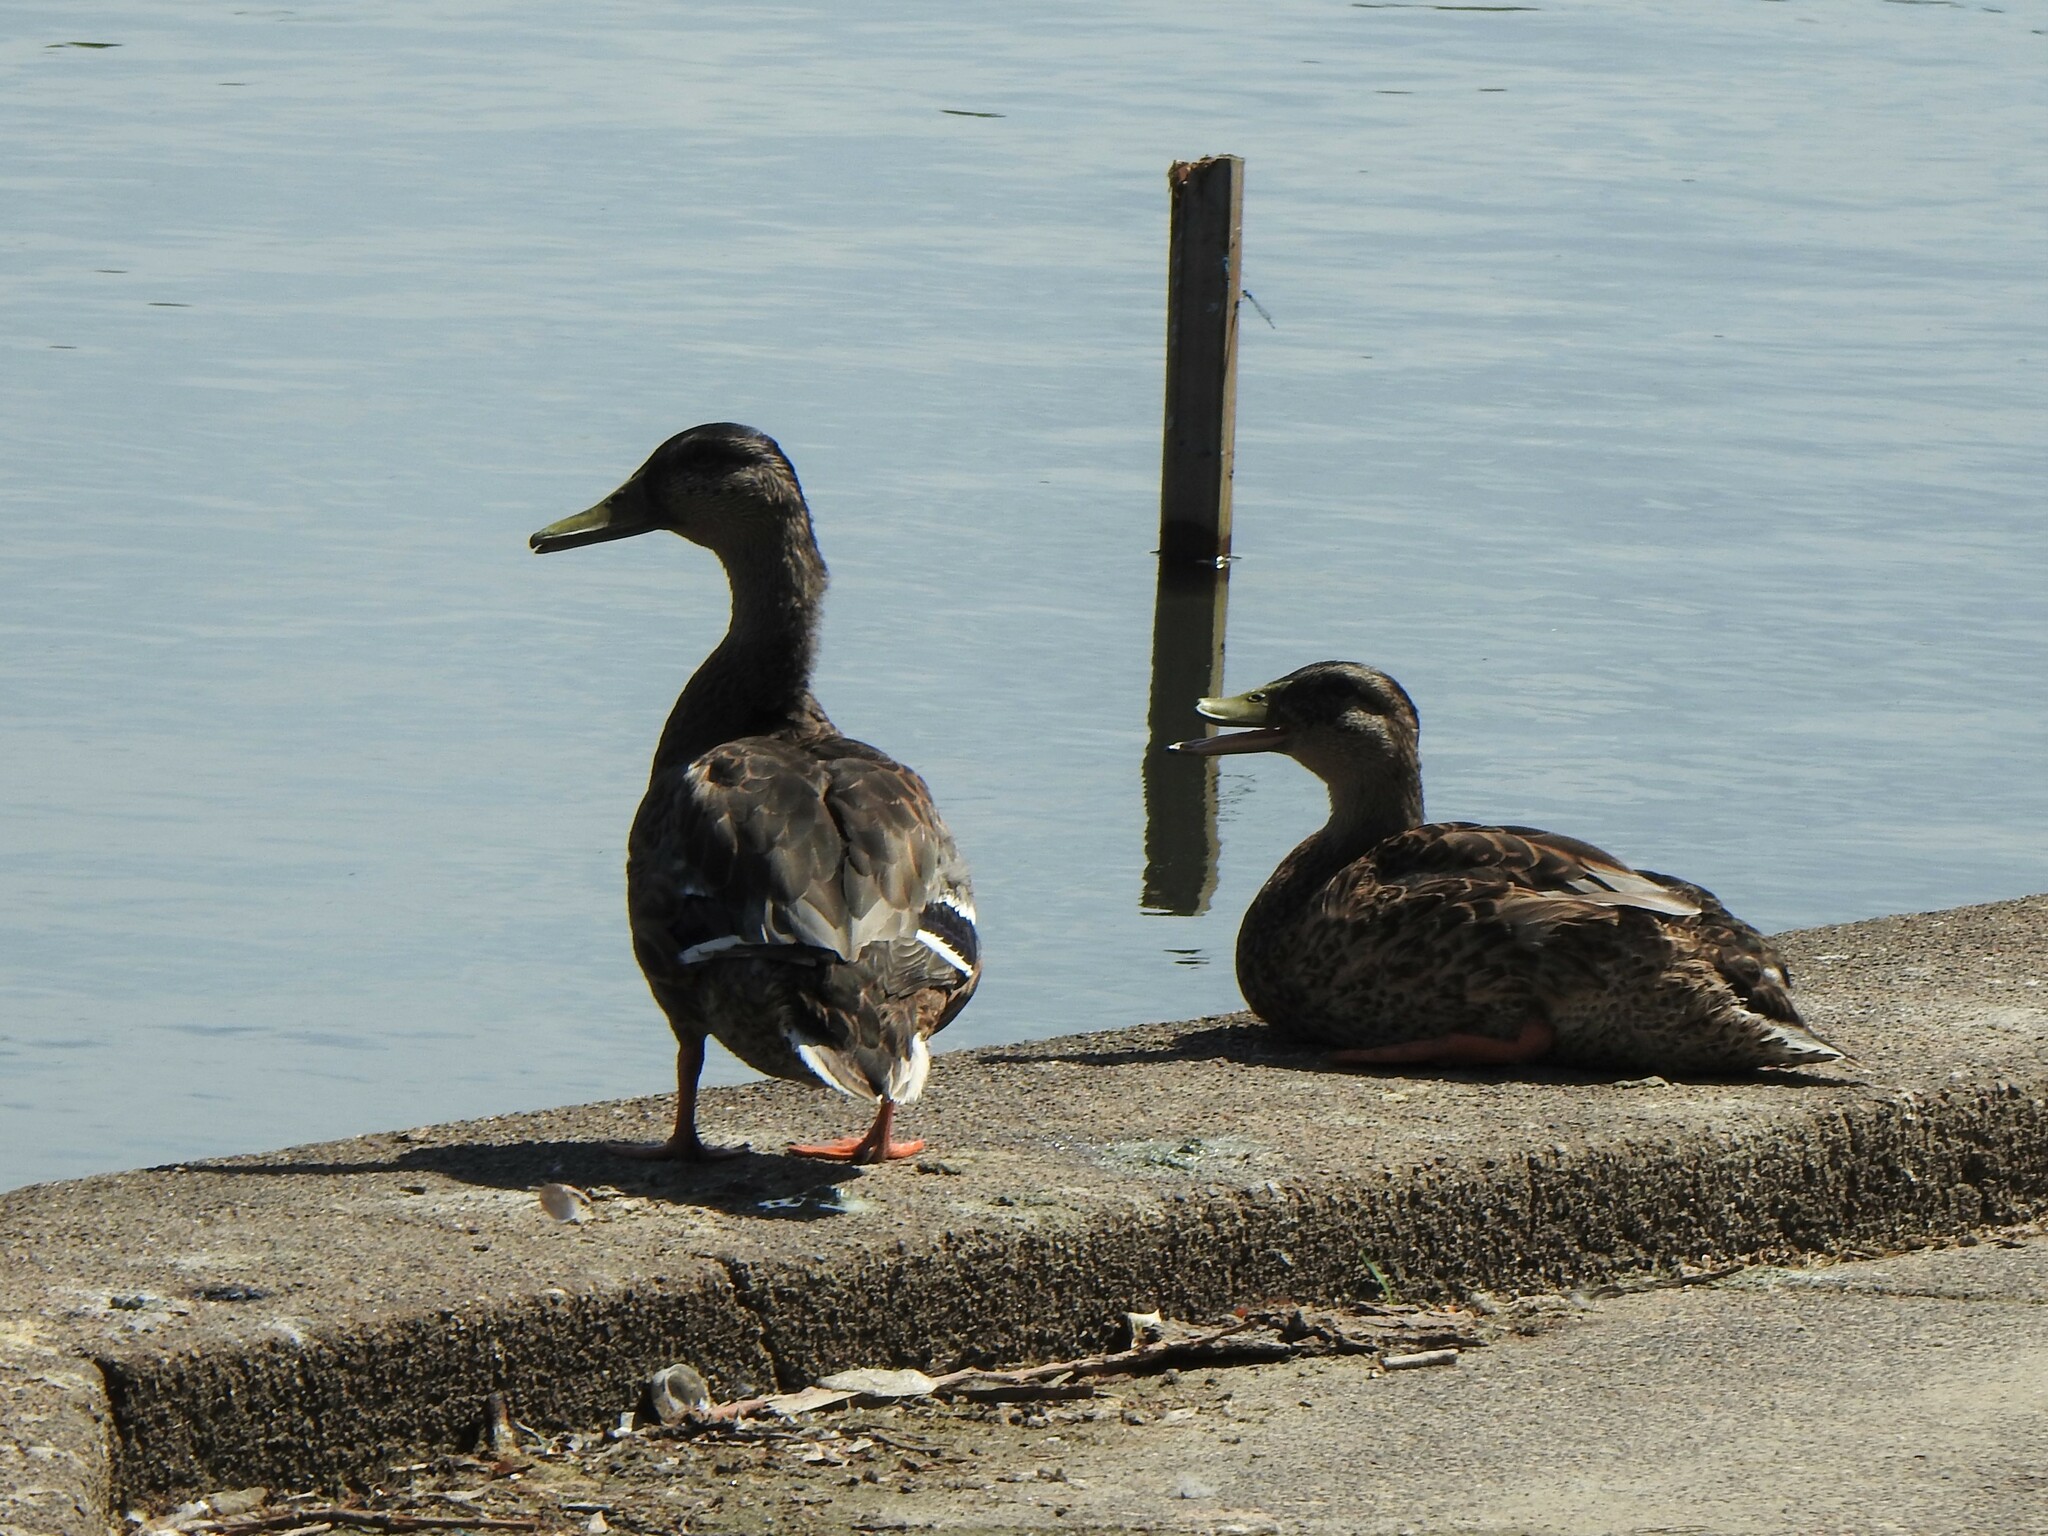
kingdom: Animalia
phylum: Chordata
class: Aves
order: Anseriformes
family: Anatidae
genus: Anas
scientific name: Anas platyrhynchos
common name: Mallard
